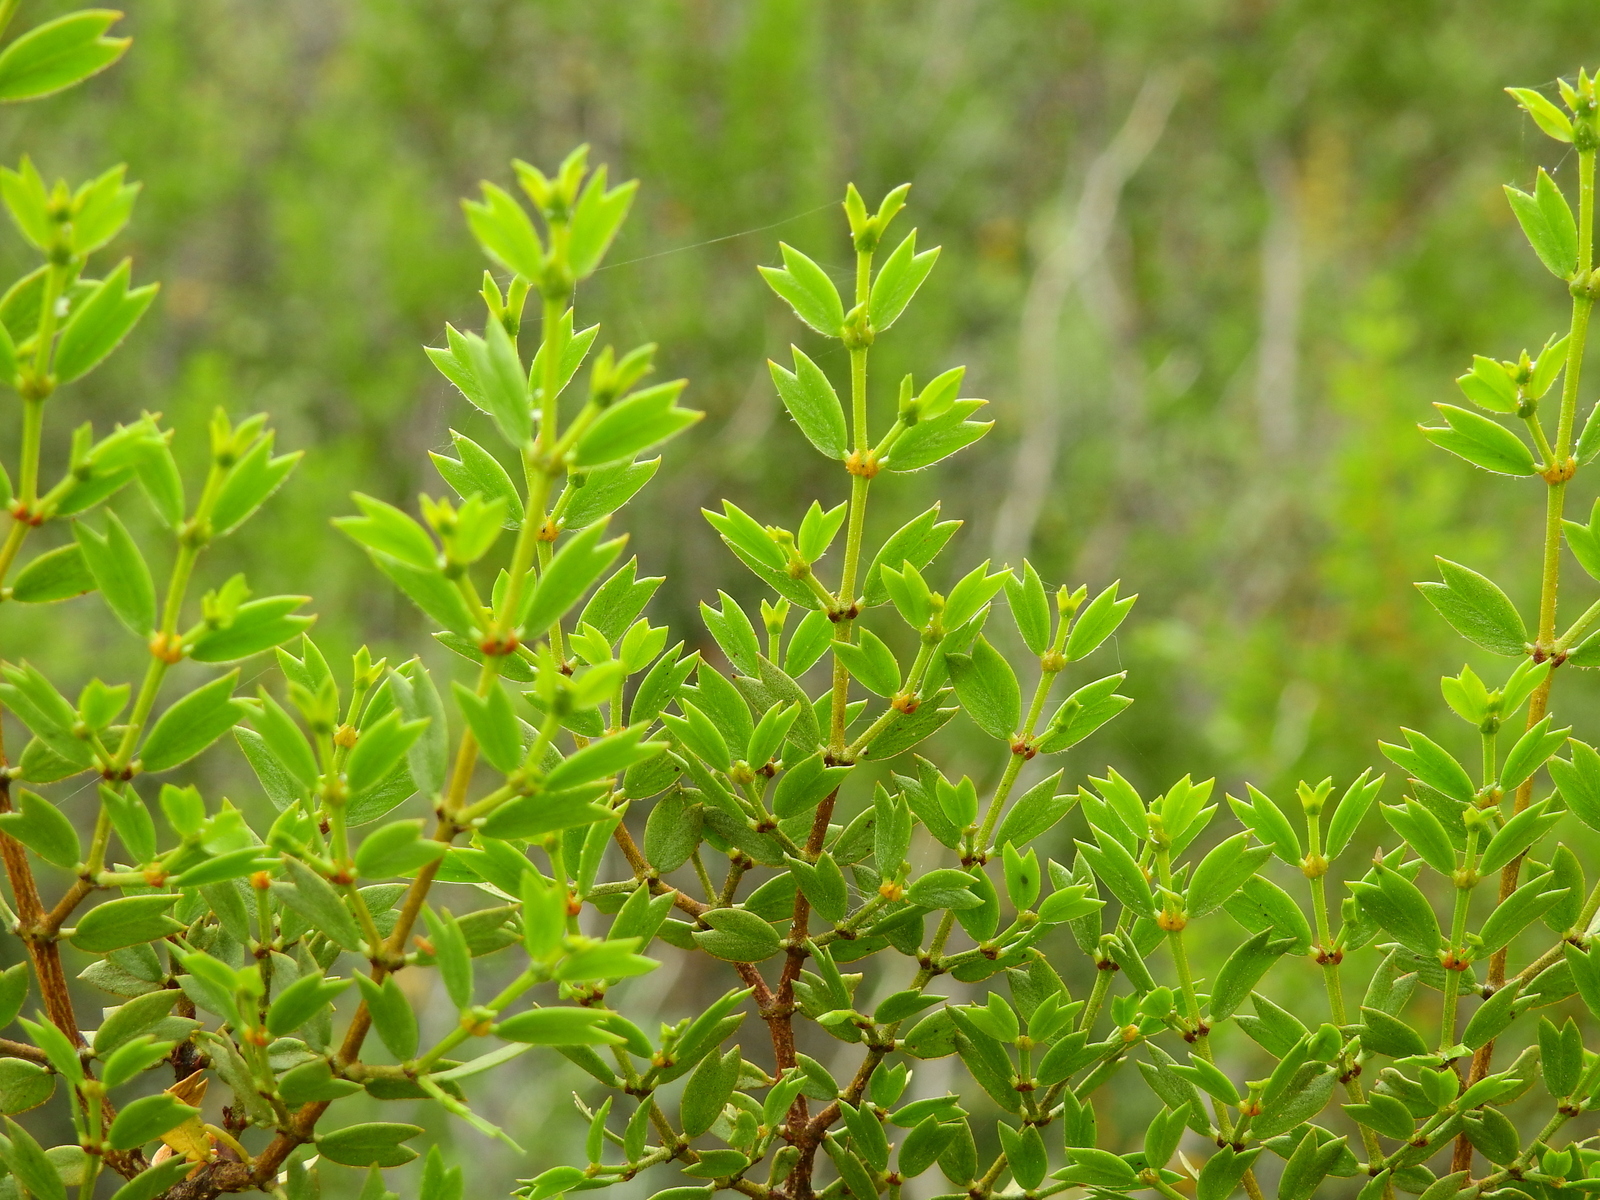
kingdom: Plantae
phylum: Tracheophyta
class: Magnoliopsida
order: Zygophyllales
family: Zygophyllaceae
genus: Larrea
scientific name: Larrea cuneifolia
